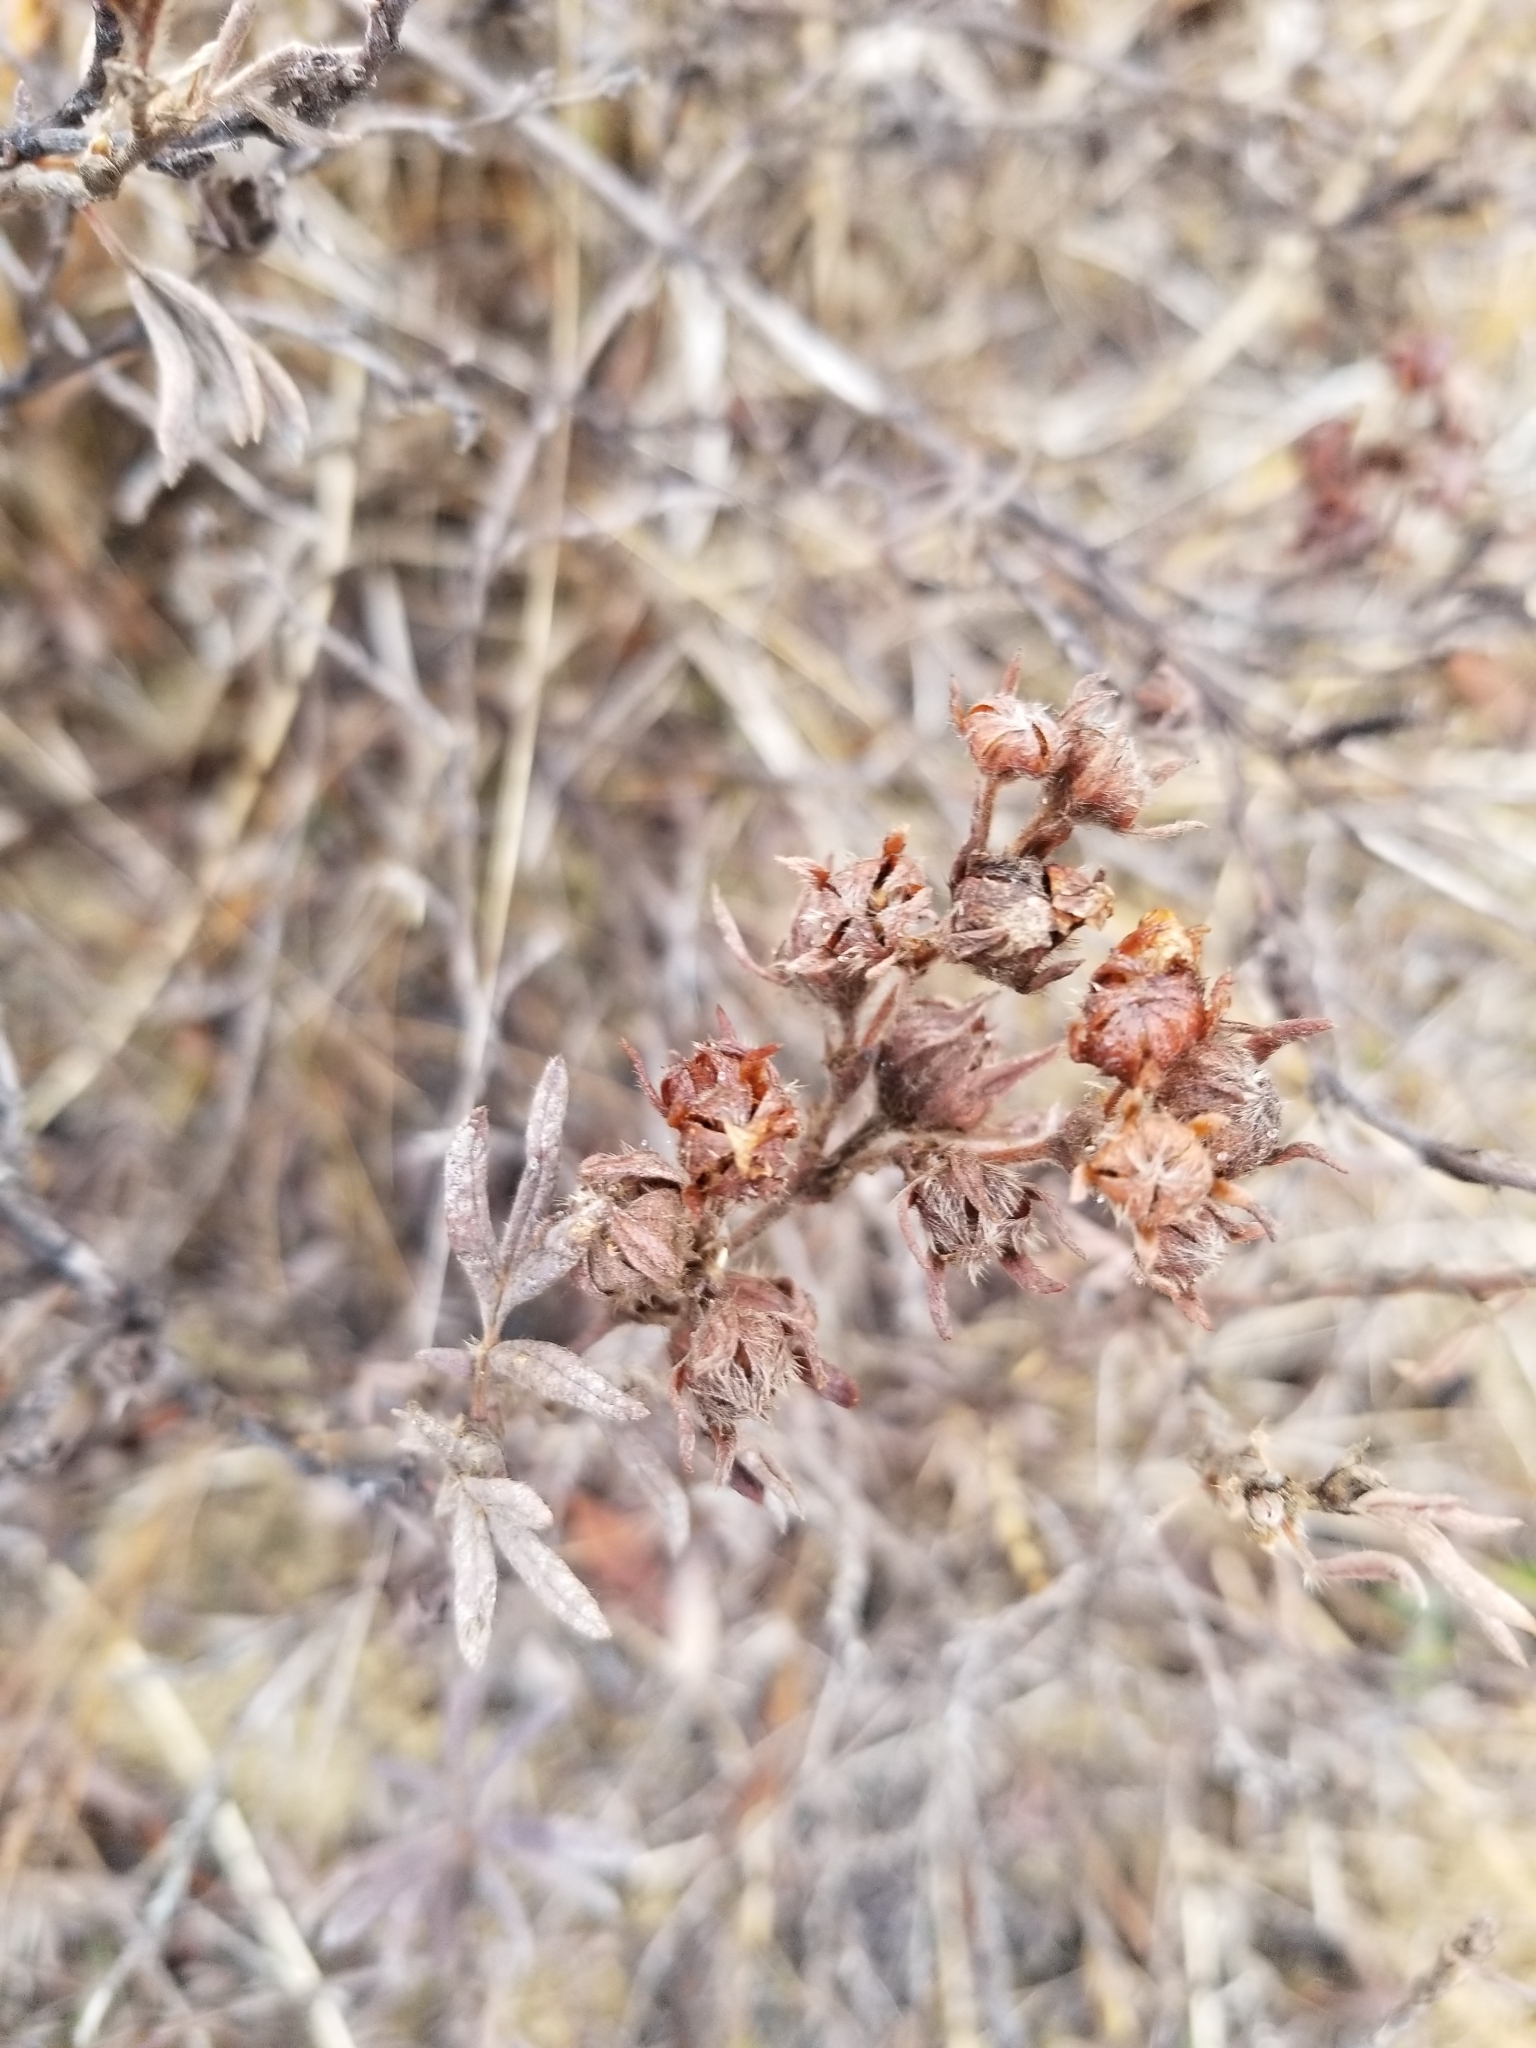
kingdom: Plantae
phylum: Tracheophyta
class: Magnoliopsida
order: Rosales
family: Rosaceae
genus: Dasiphora
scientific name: Dasiphora fruticosa
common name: Shrubby cinquefoil
